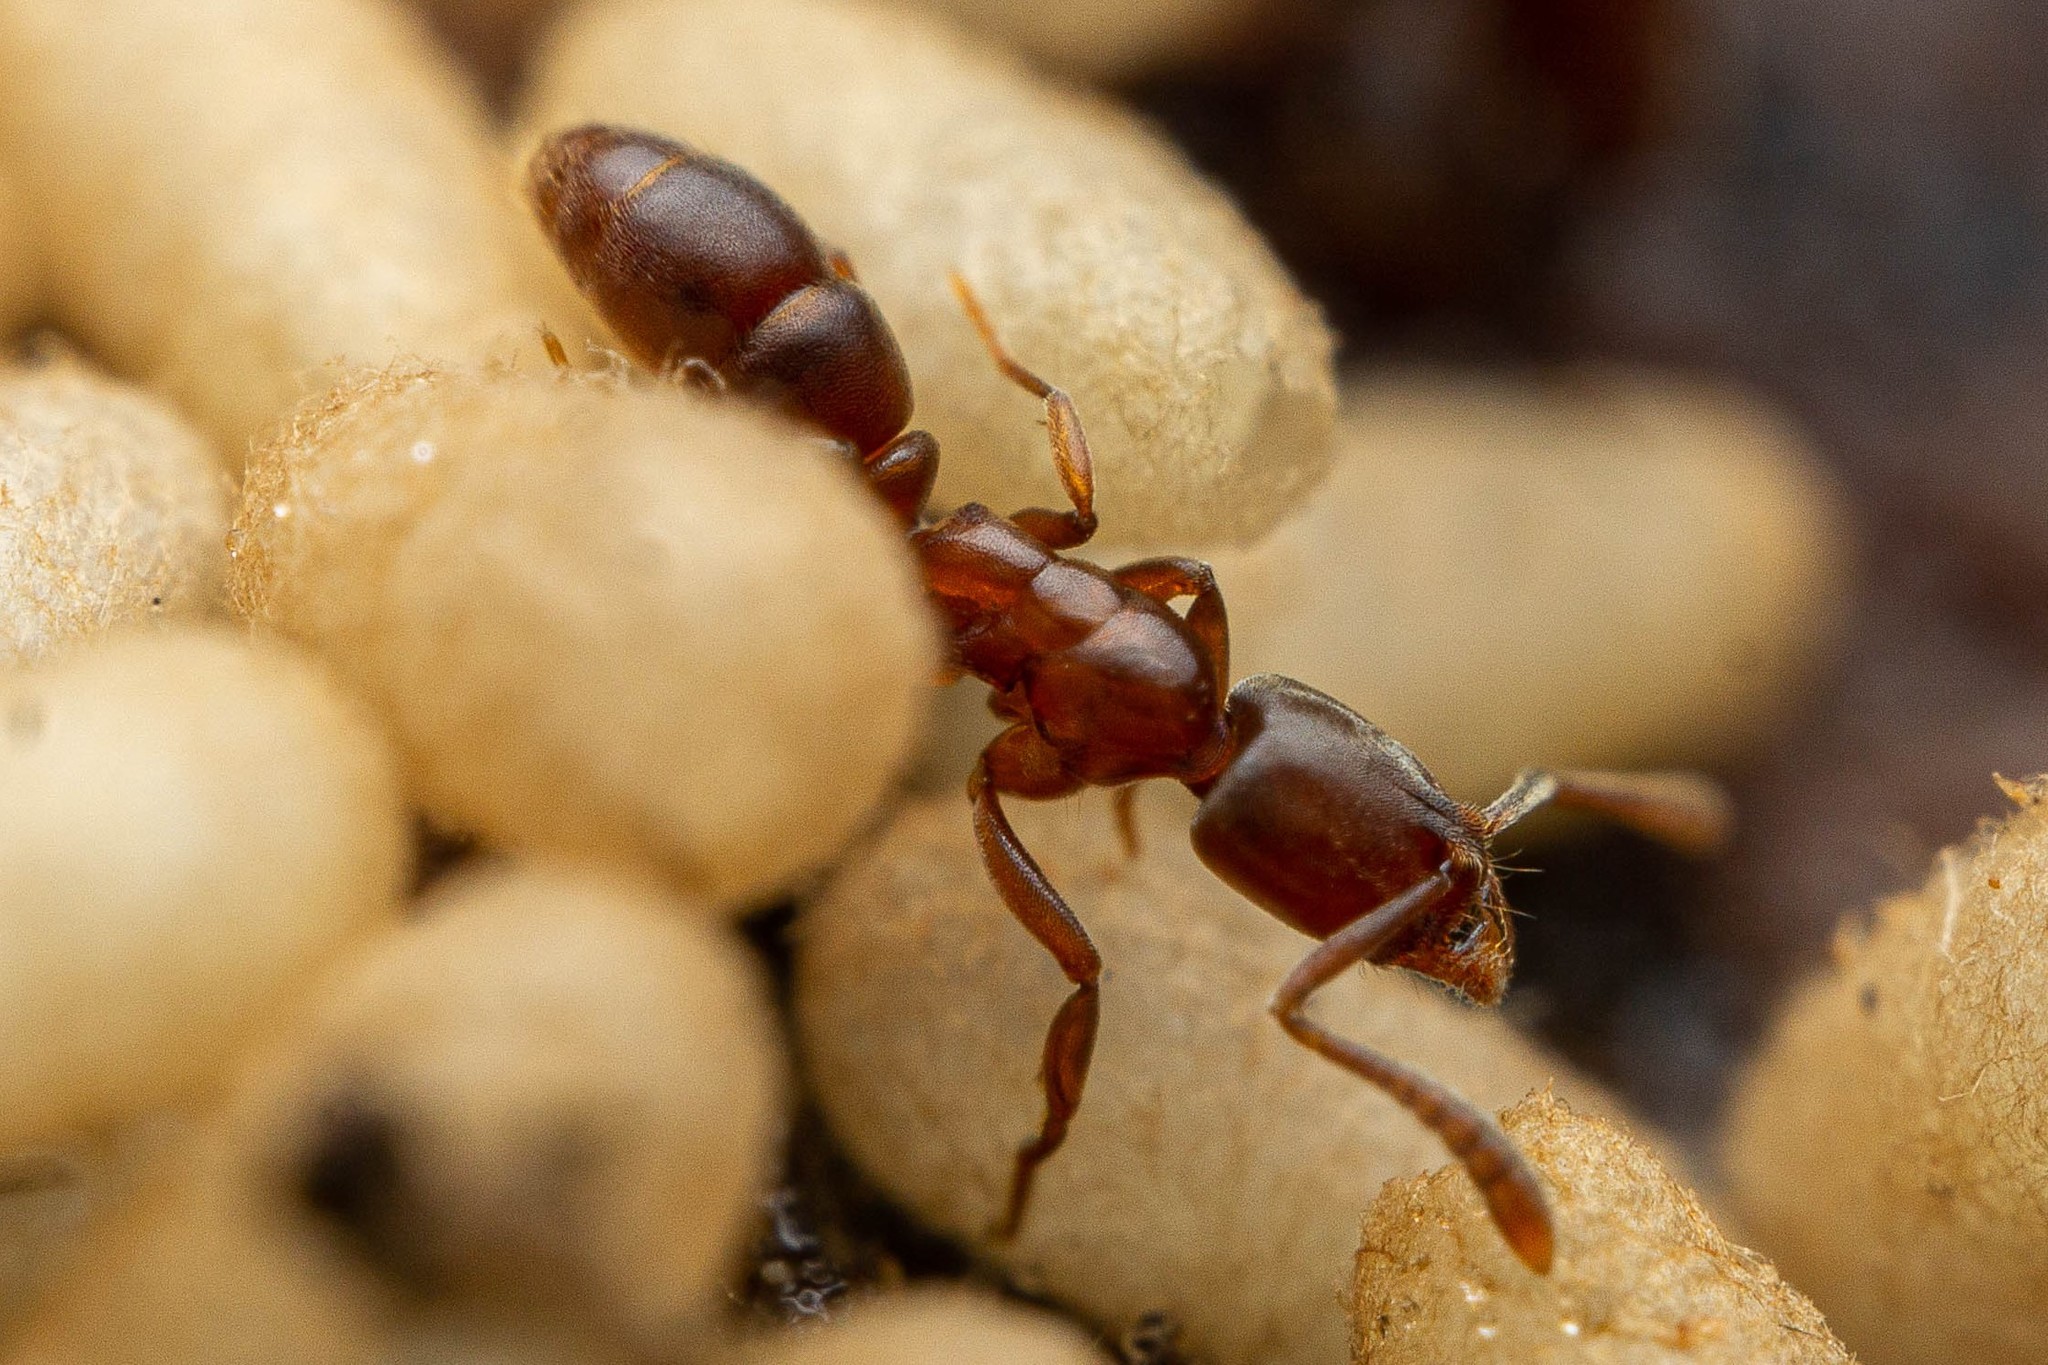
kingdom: Animalia
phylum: Arthropoda
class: Insecta
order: Hymenoptera
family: Formicidae
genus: Hypoponera
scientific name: Hypoponera opacior
